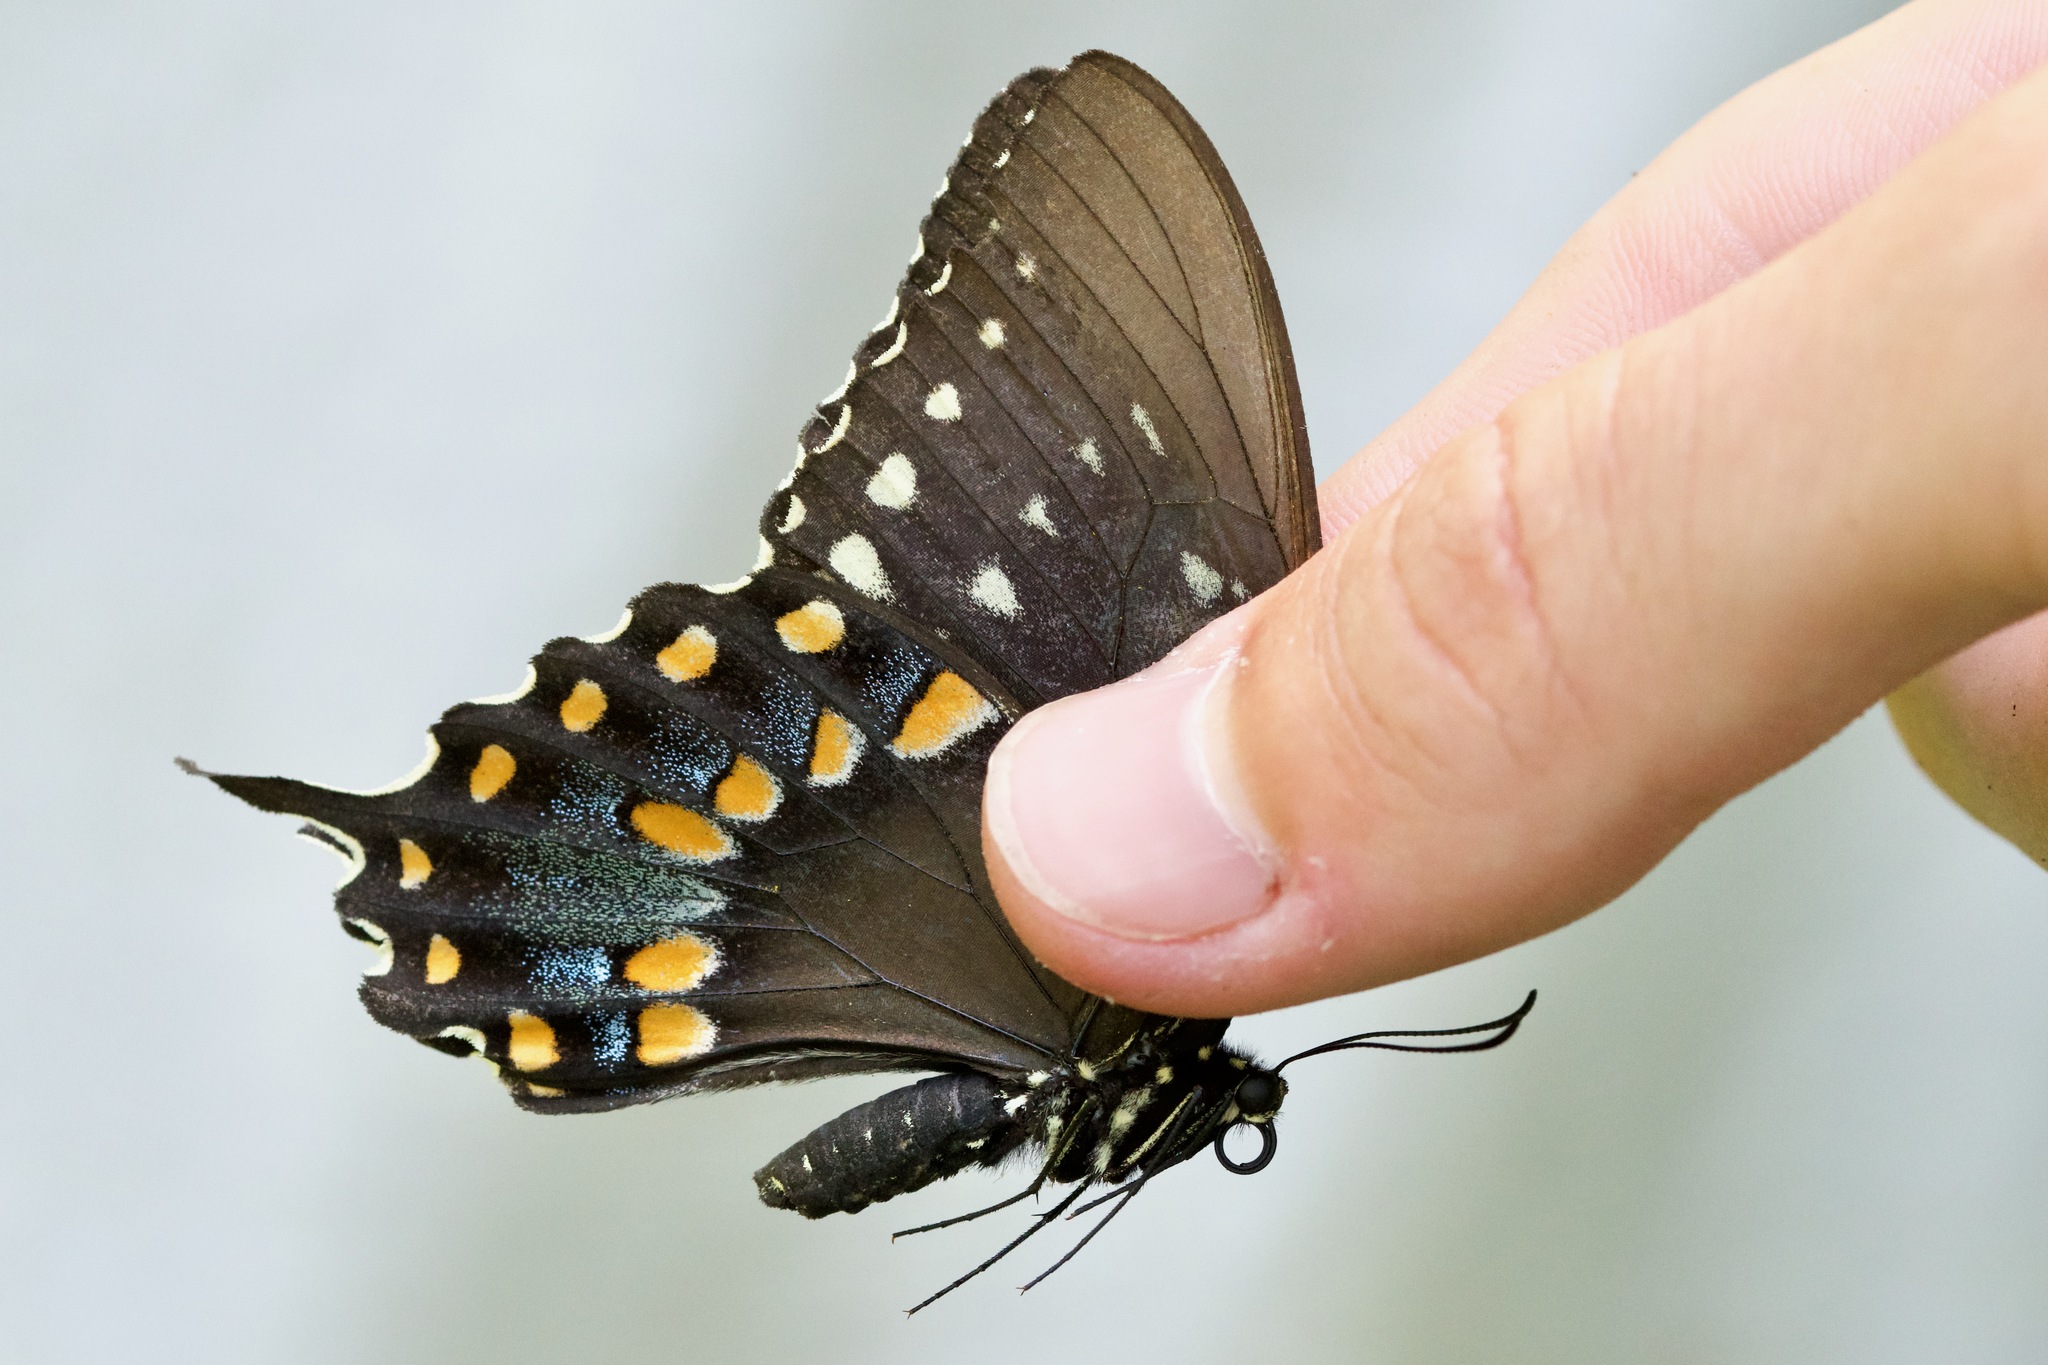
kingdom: Animalia
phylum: Arthropoda
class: Insecta
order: Lepidoptera
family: Papilionidae
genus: Papilio
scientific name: Papilio troilus
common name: Spicebush swallowtail
